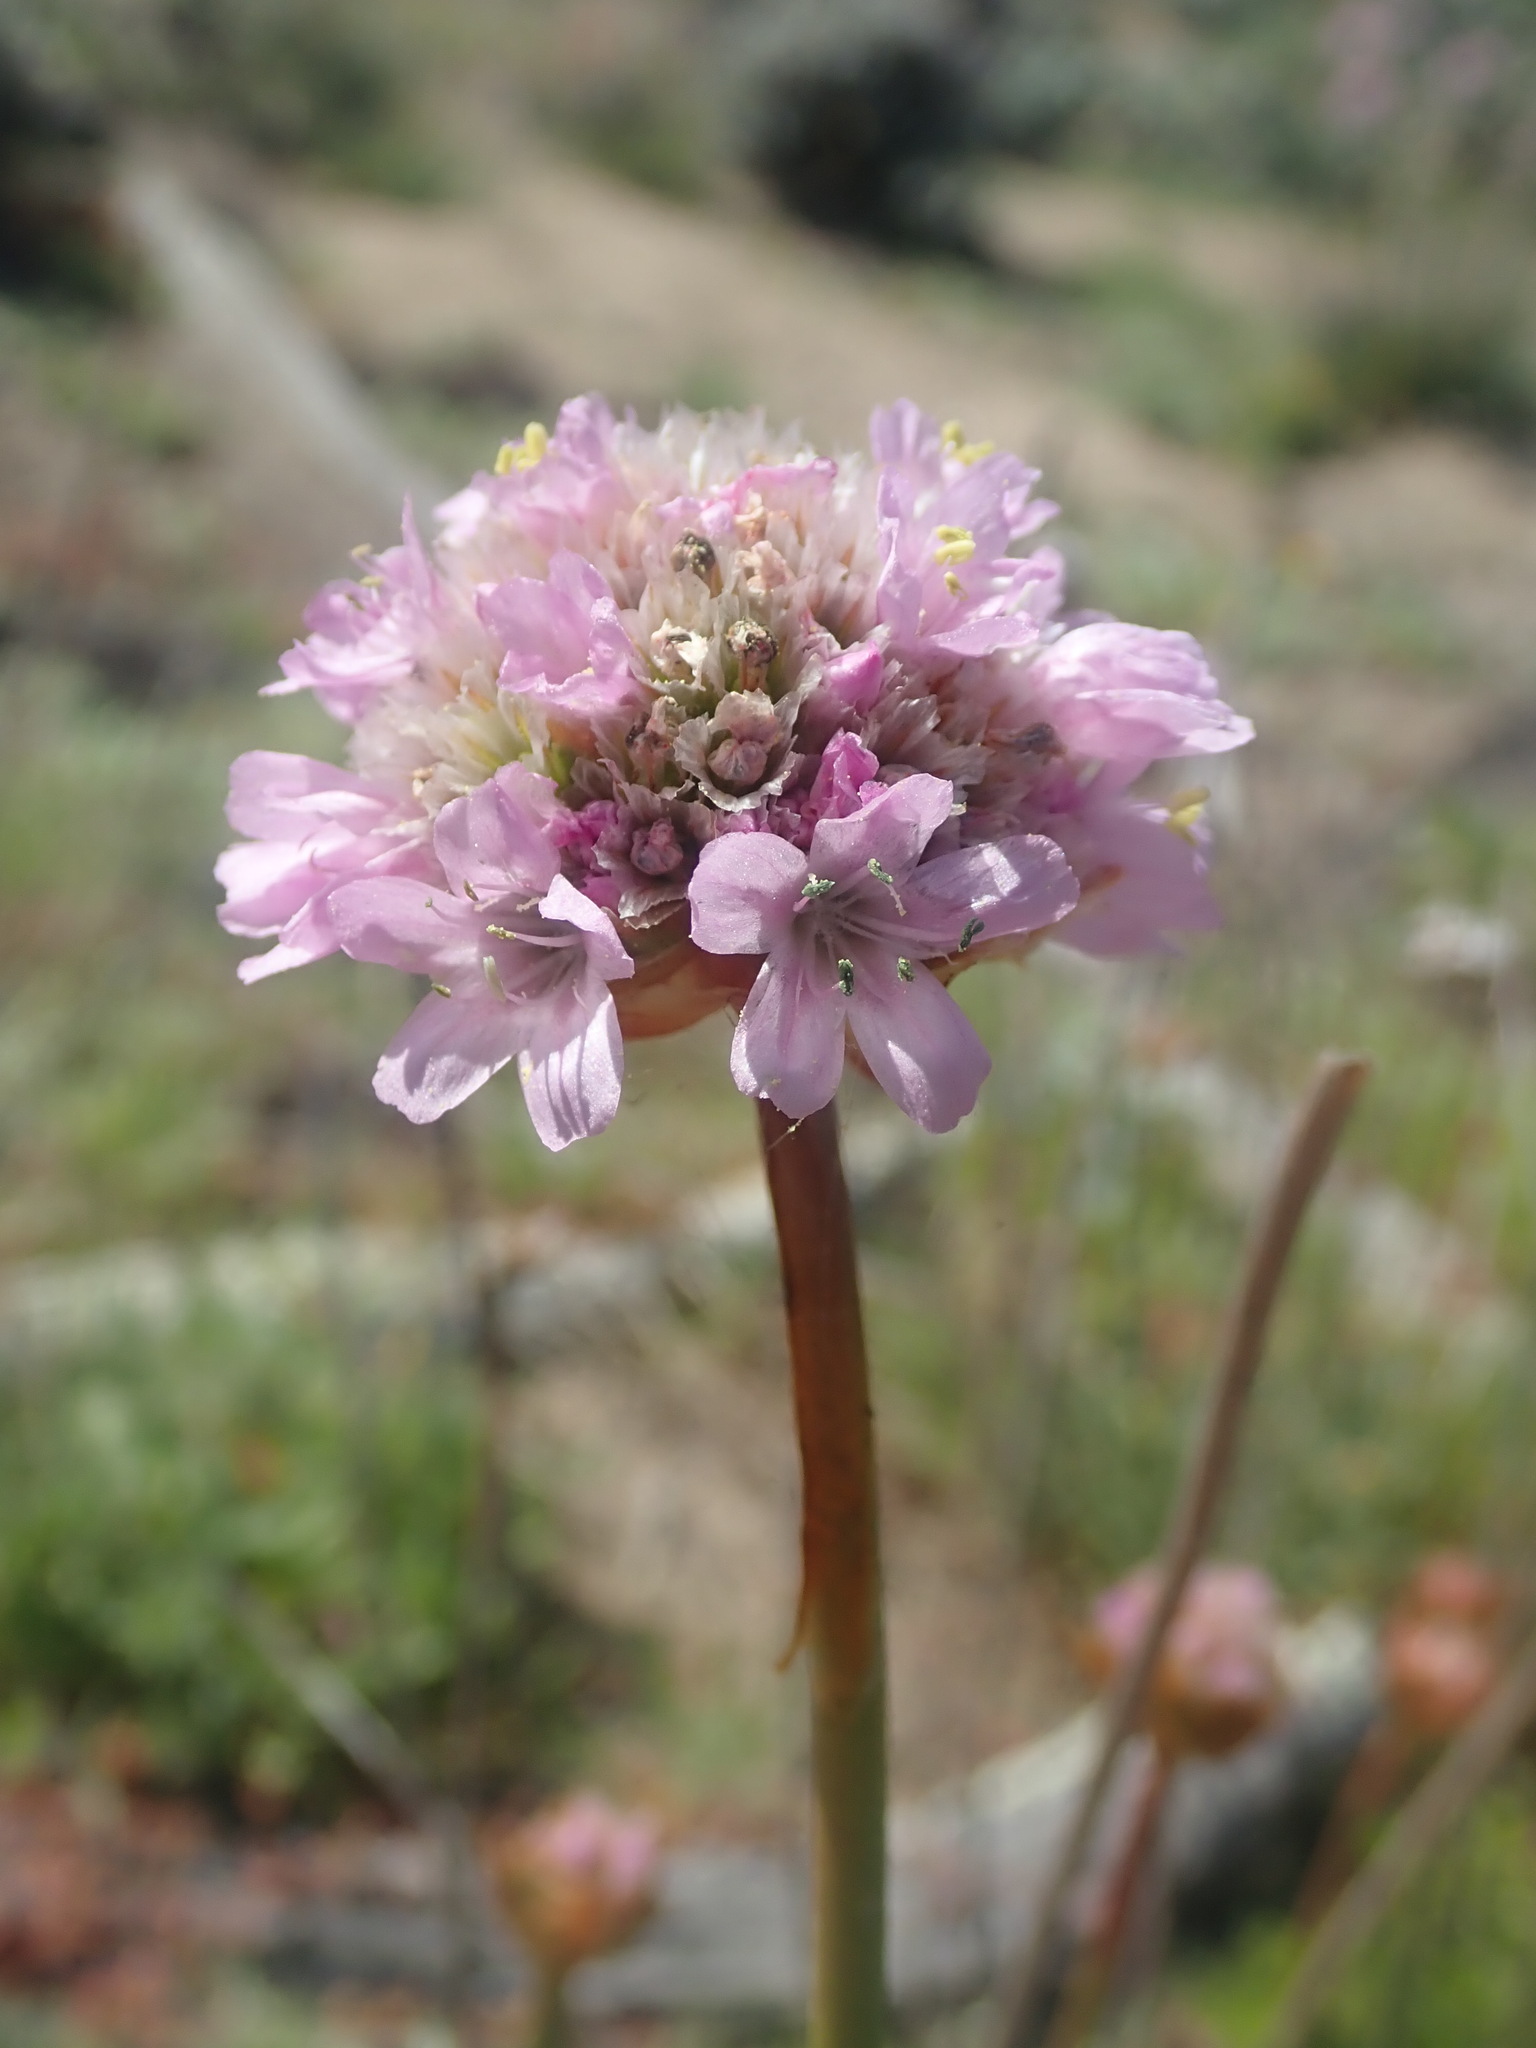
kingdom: Plantae
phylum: Tracheophyta
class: Magnoliopsida
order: Caryophyllales
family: Plumbaginaceae
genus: Armeria
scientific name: Armeria maritima
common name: Thrift
